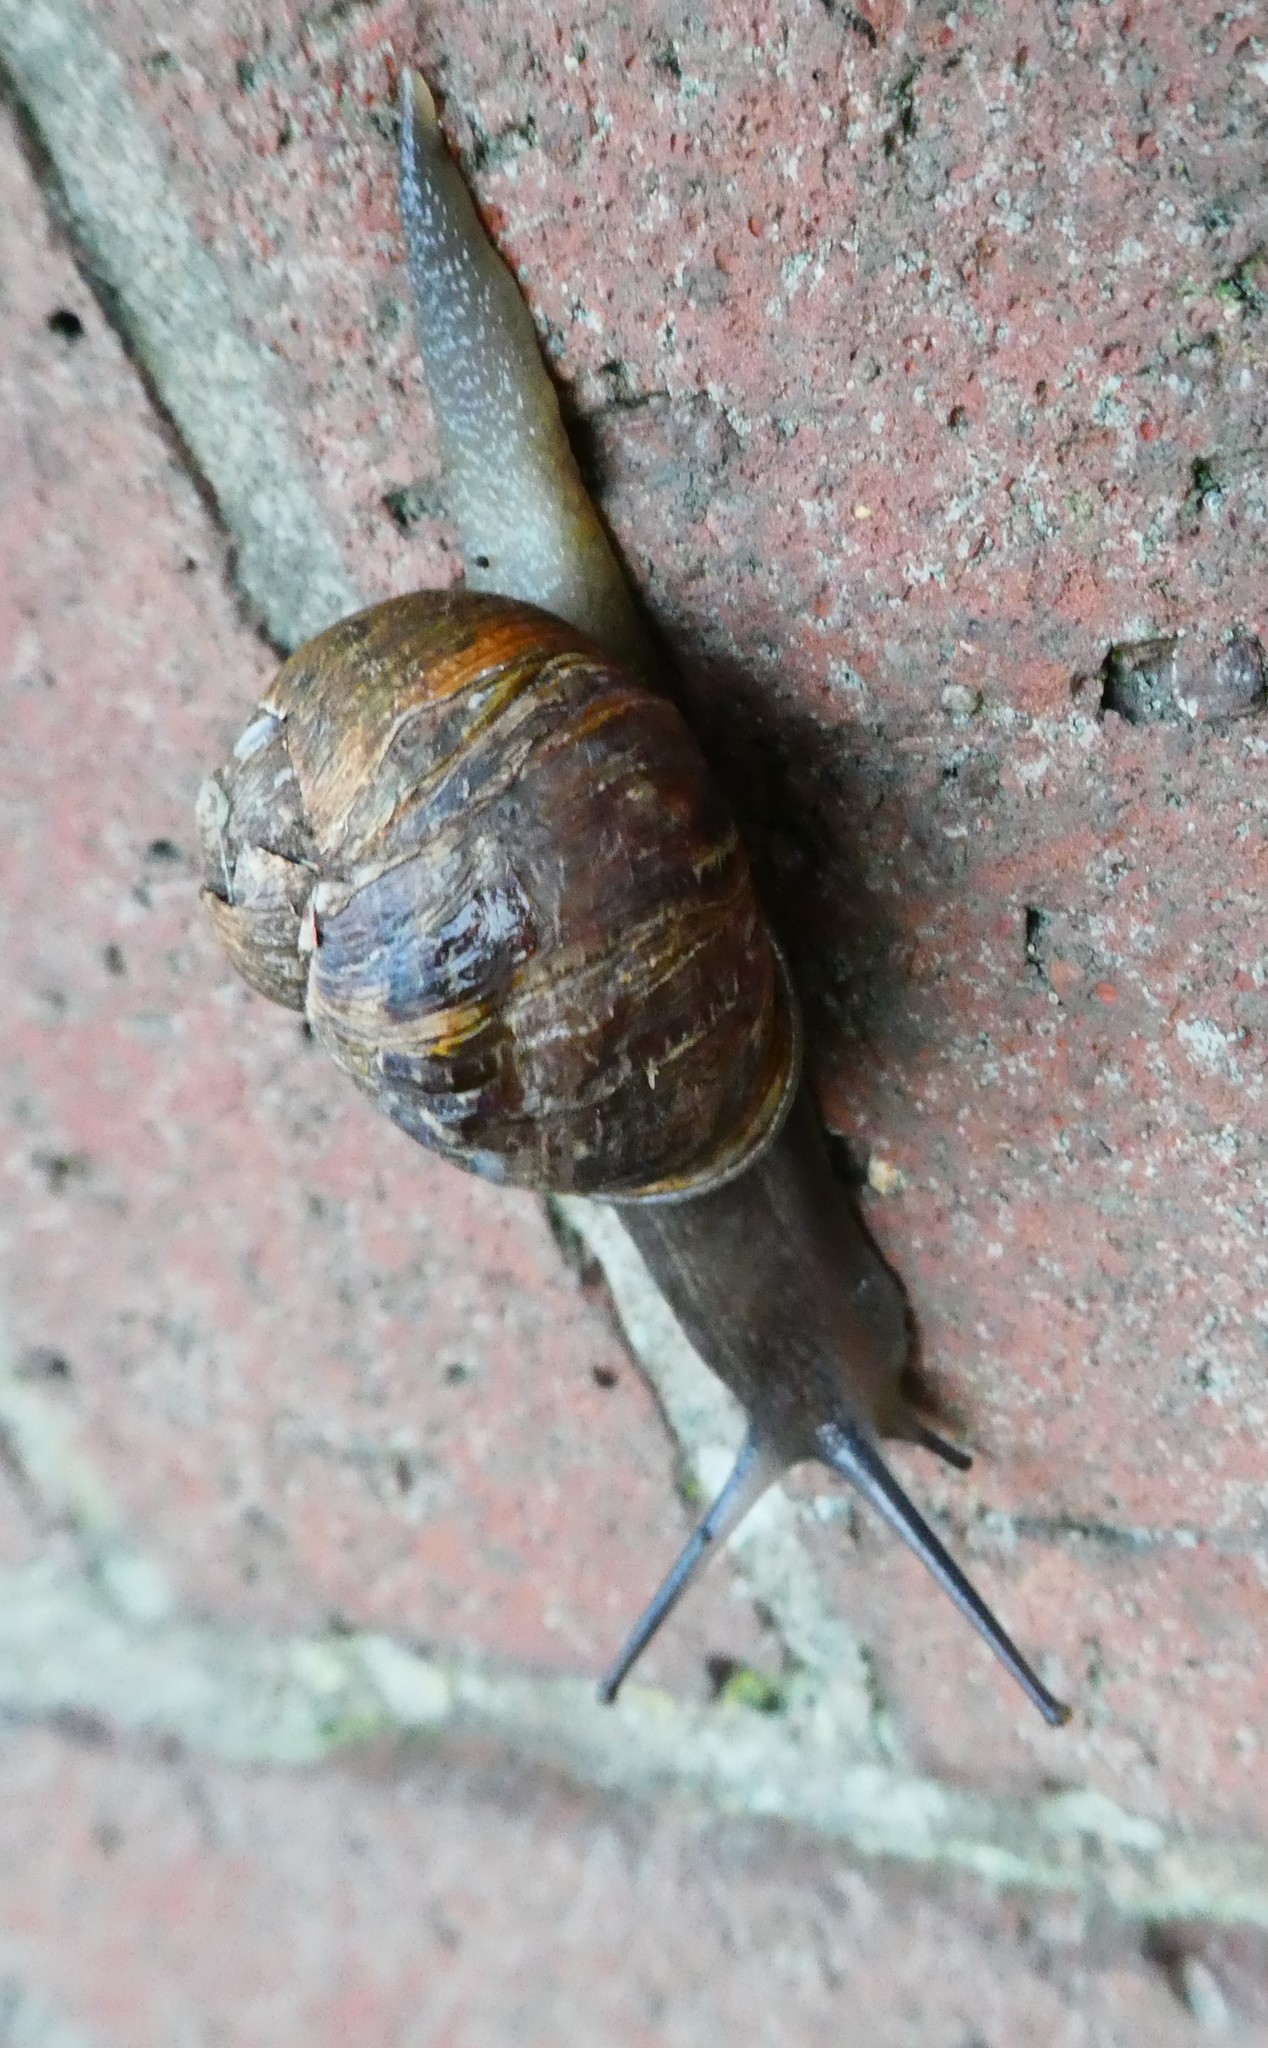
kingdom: Animalia
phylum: Mollusca
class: Gastropoda
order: Stylommatophora
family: Helicidae
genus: Cornu
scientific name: Cornu aspersum
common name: Brown garden snail
